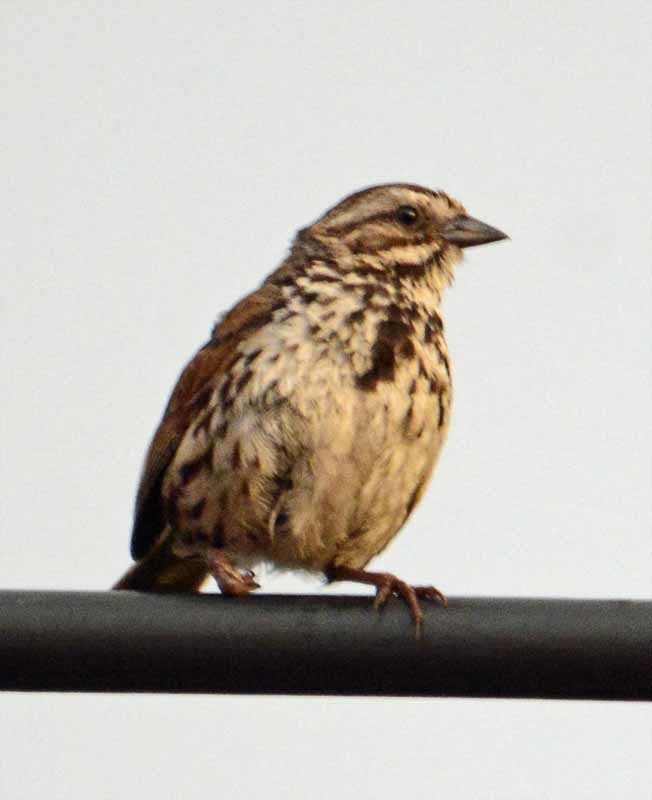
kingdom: Animalia
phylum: Chordata
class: Aves
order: Passeriformes
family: Passerellidae
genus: Melospiza
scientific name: Melospiza melodia
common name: Song sparrow
